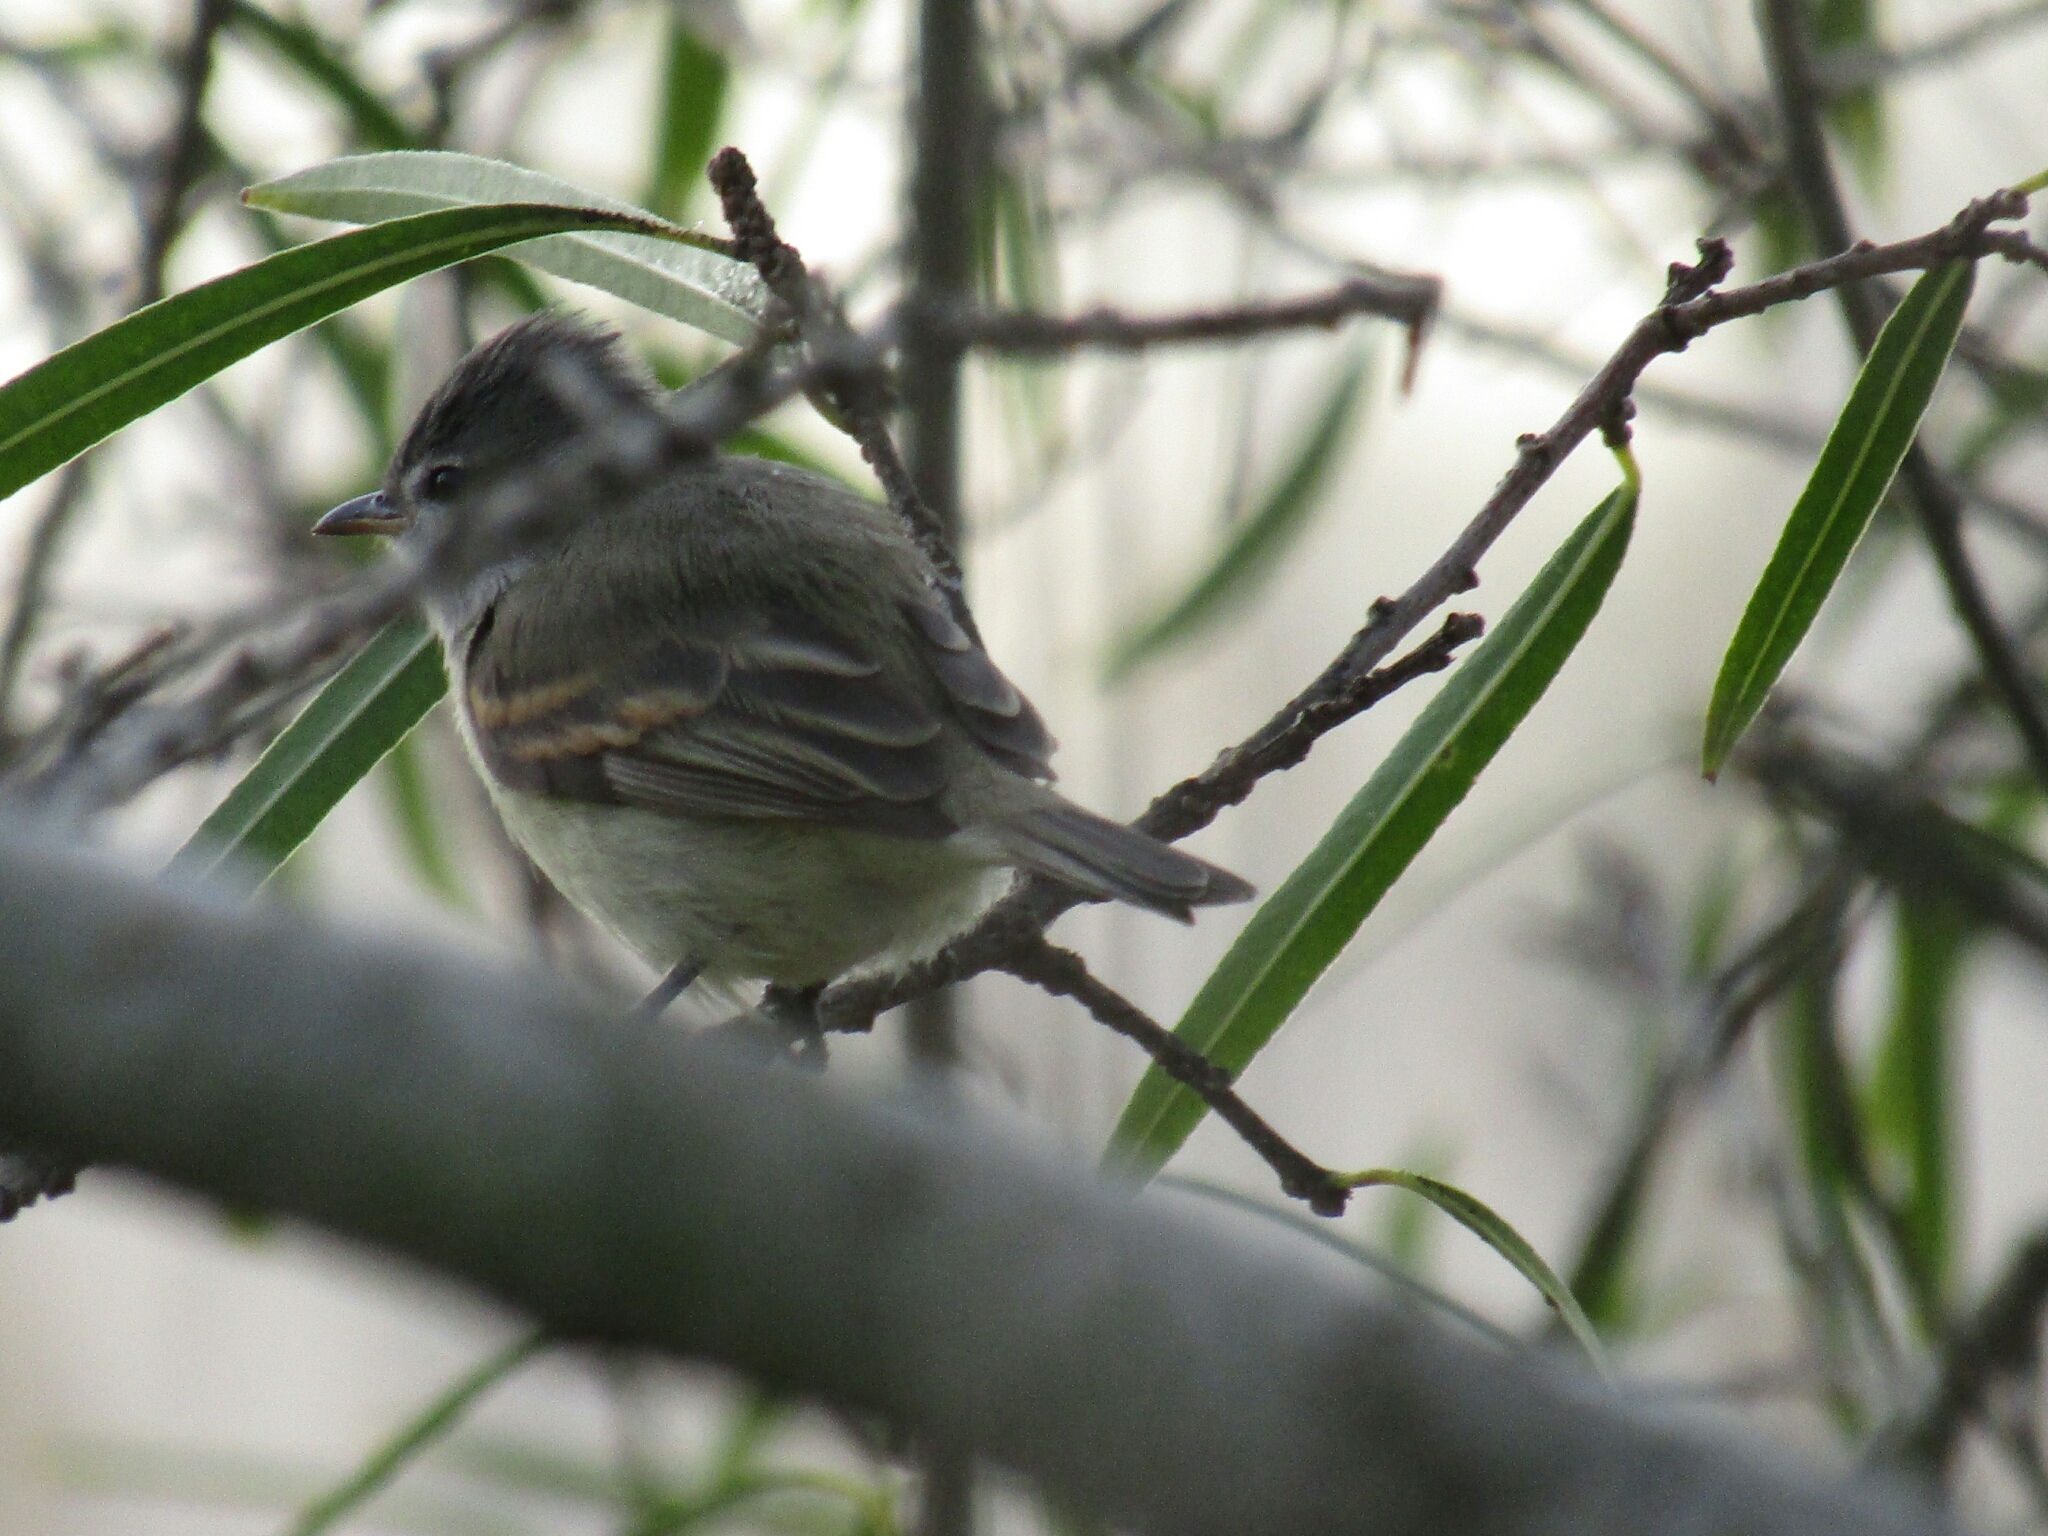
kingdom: Animalia
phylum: Chordata
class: Aves
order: Passeriformes
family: Tyrannidae
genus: Camptostoma
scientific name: Camptostoma obsoletum
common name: Southern beardless-tyrannulet
